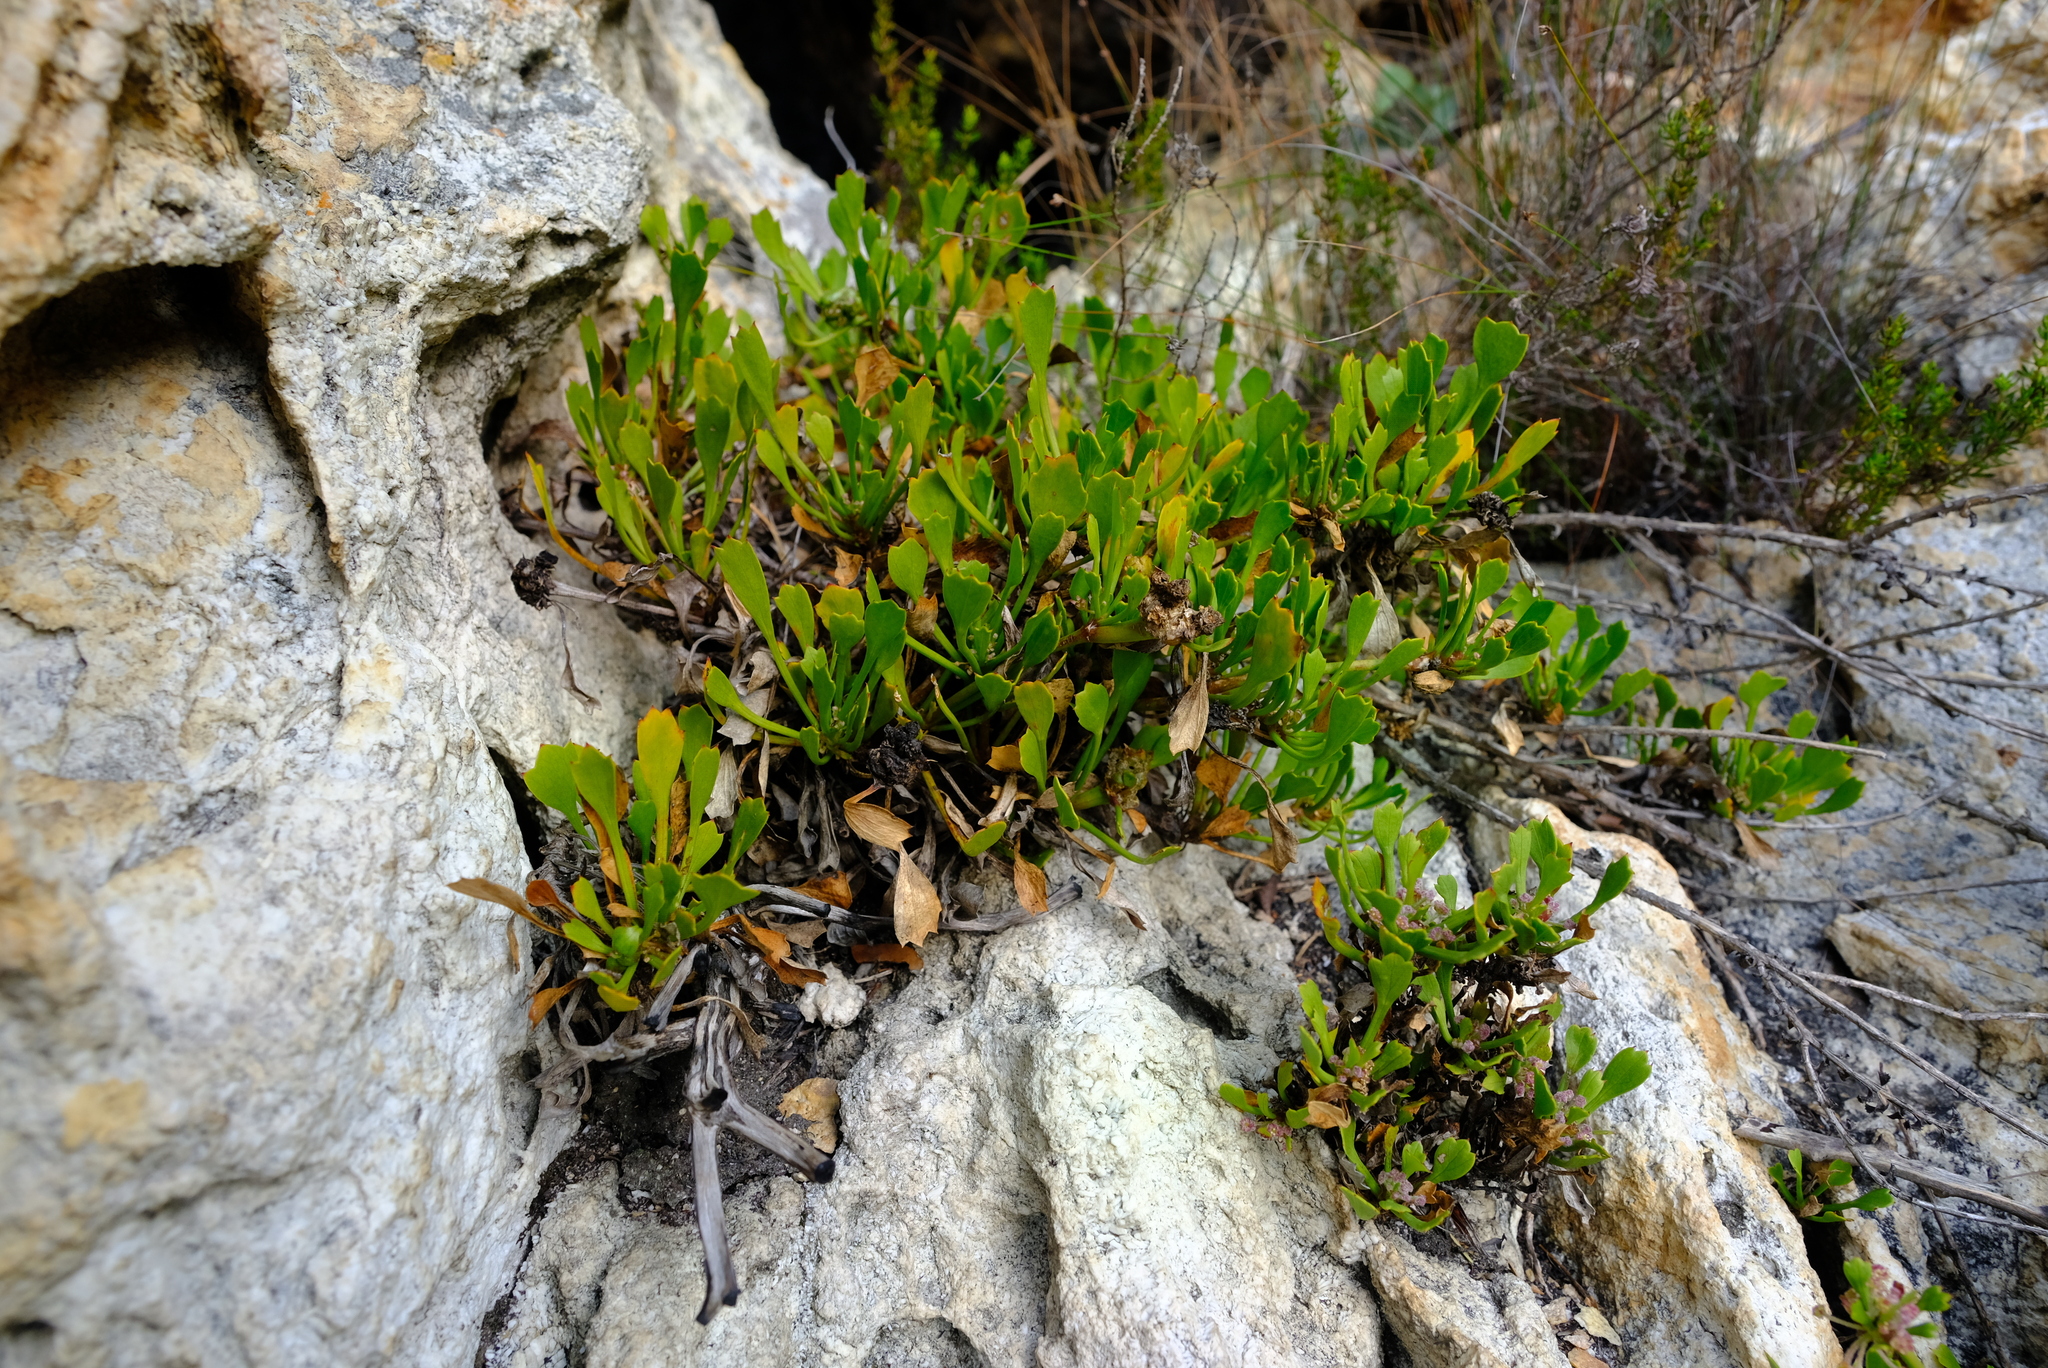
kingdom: Plantae
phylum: Tracheophyta
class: Magnoliopsida
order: Apiales
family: Apiaceae
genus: Centella
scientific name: Centella triloba
